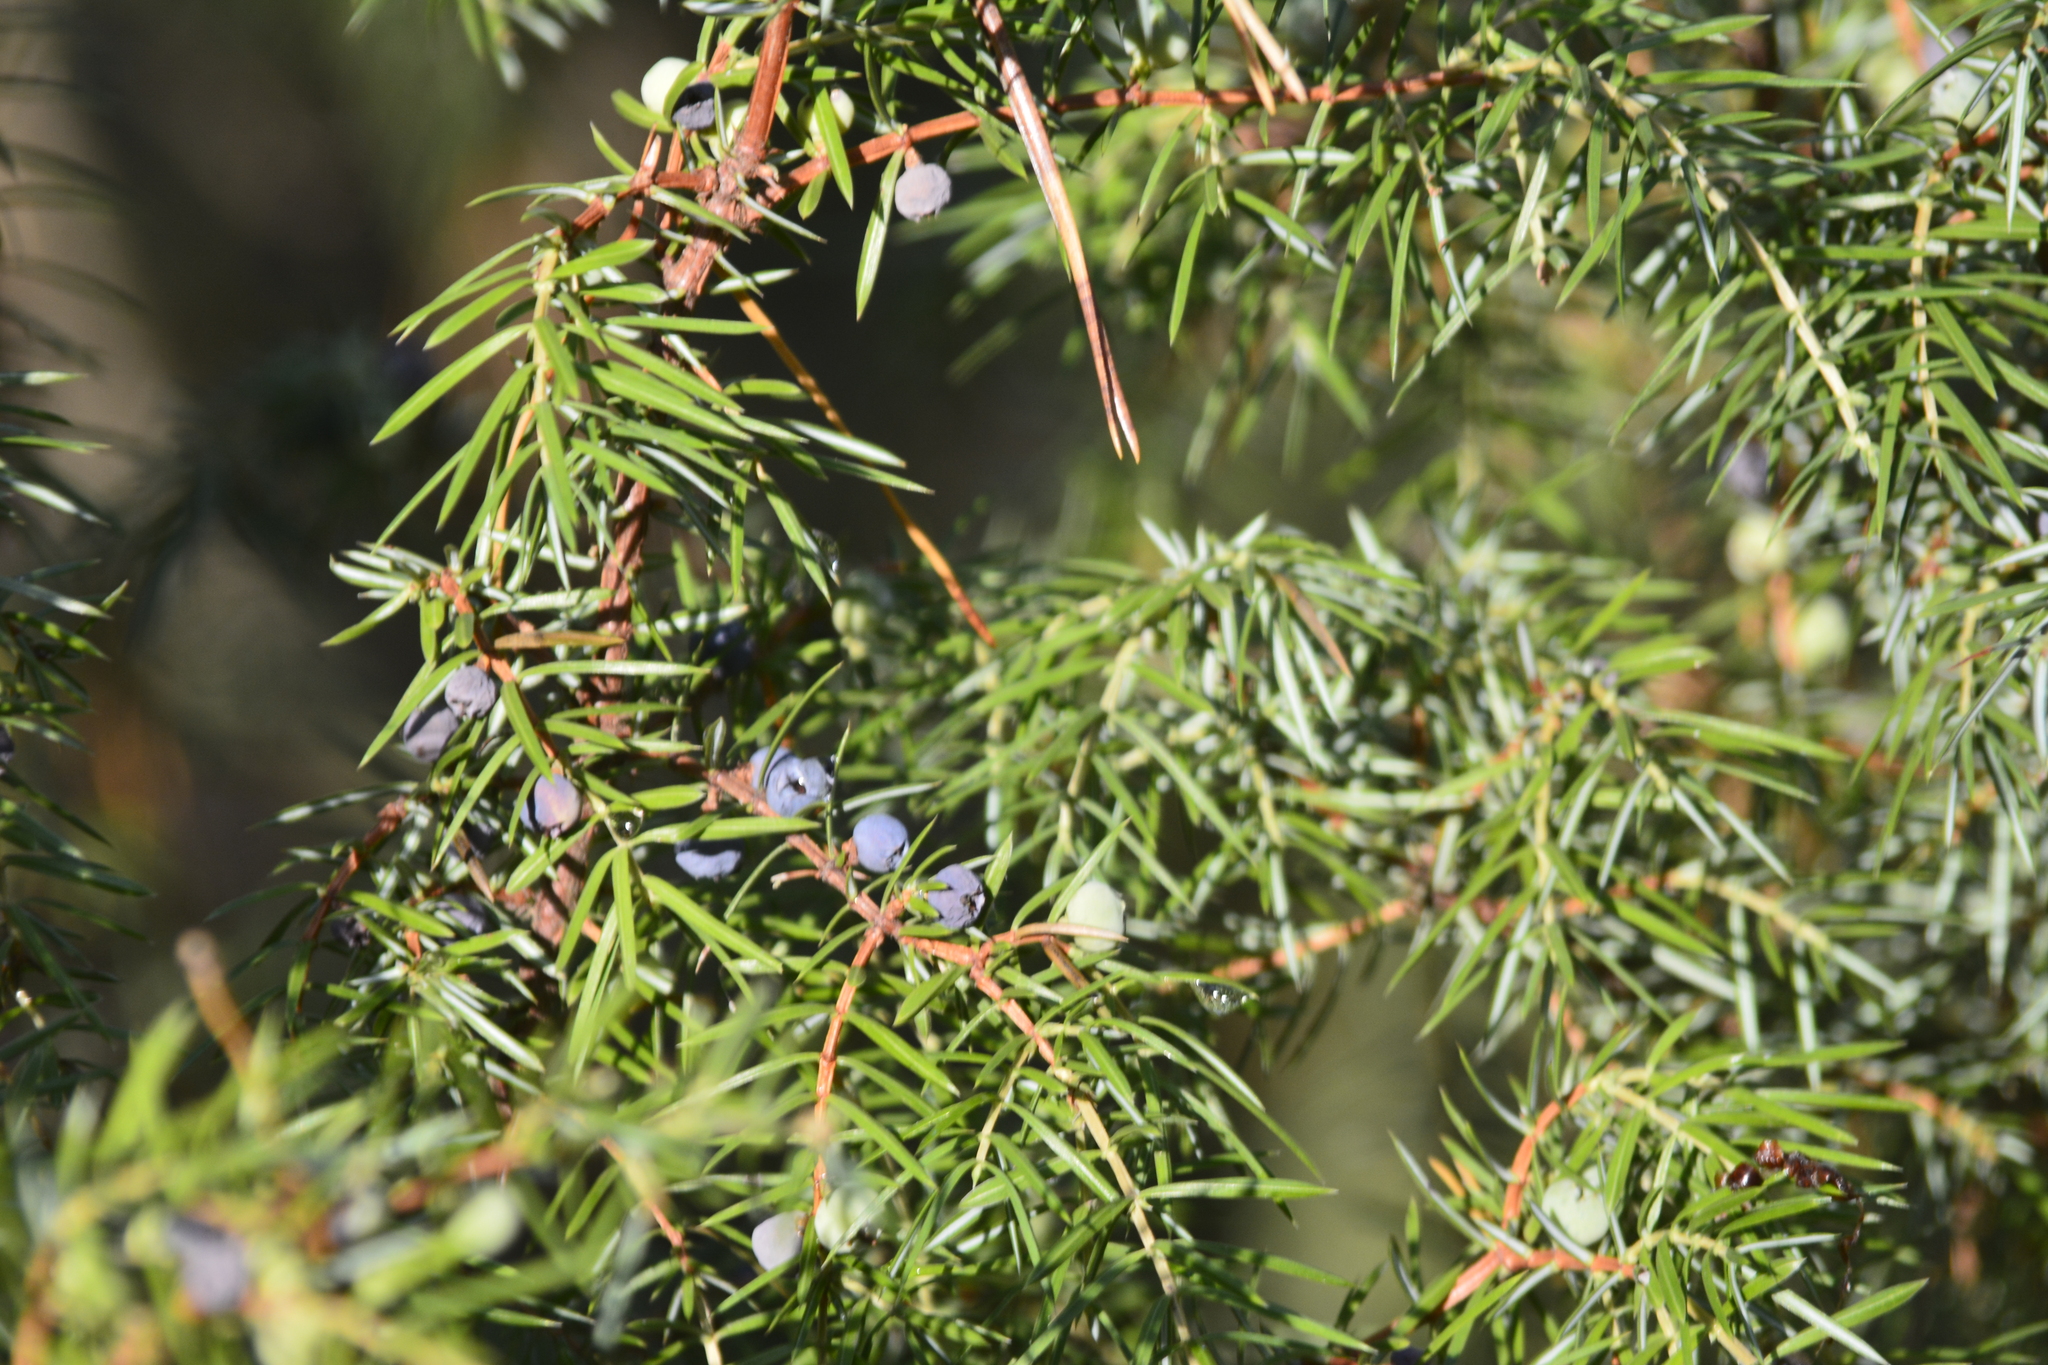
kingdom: Plantae
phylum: Tracheophyta
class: Pinopsida
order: Pinales
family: Cupressaceae
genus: Juniperus
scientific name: Juniperus communis
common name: Common juniper
